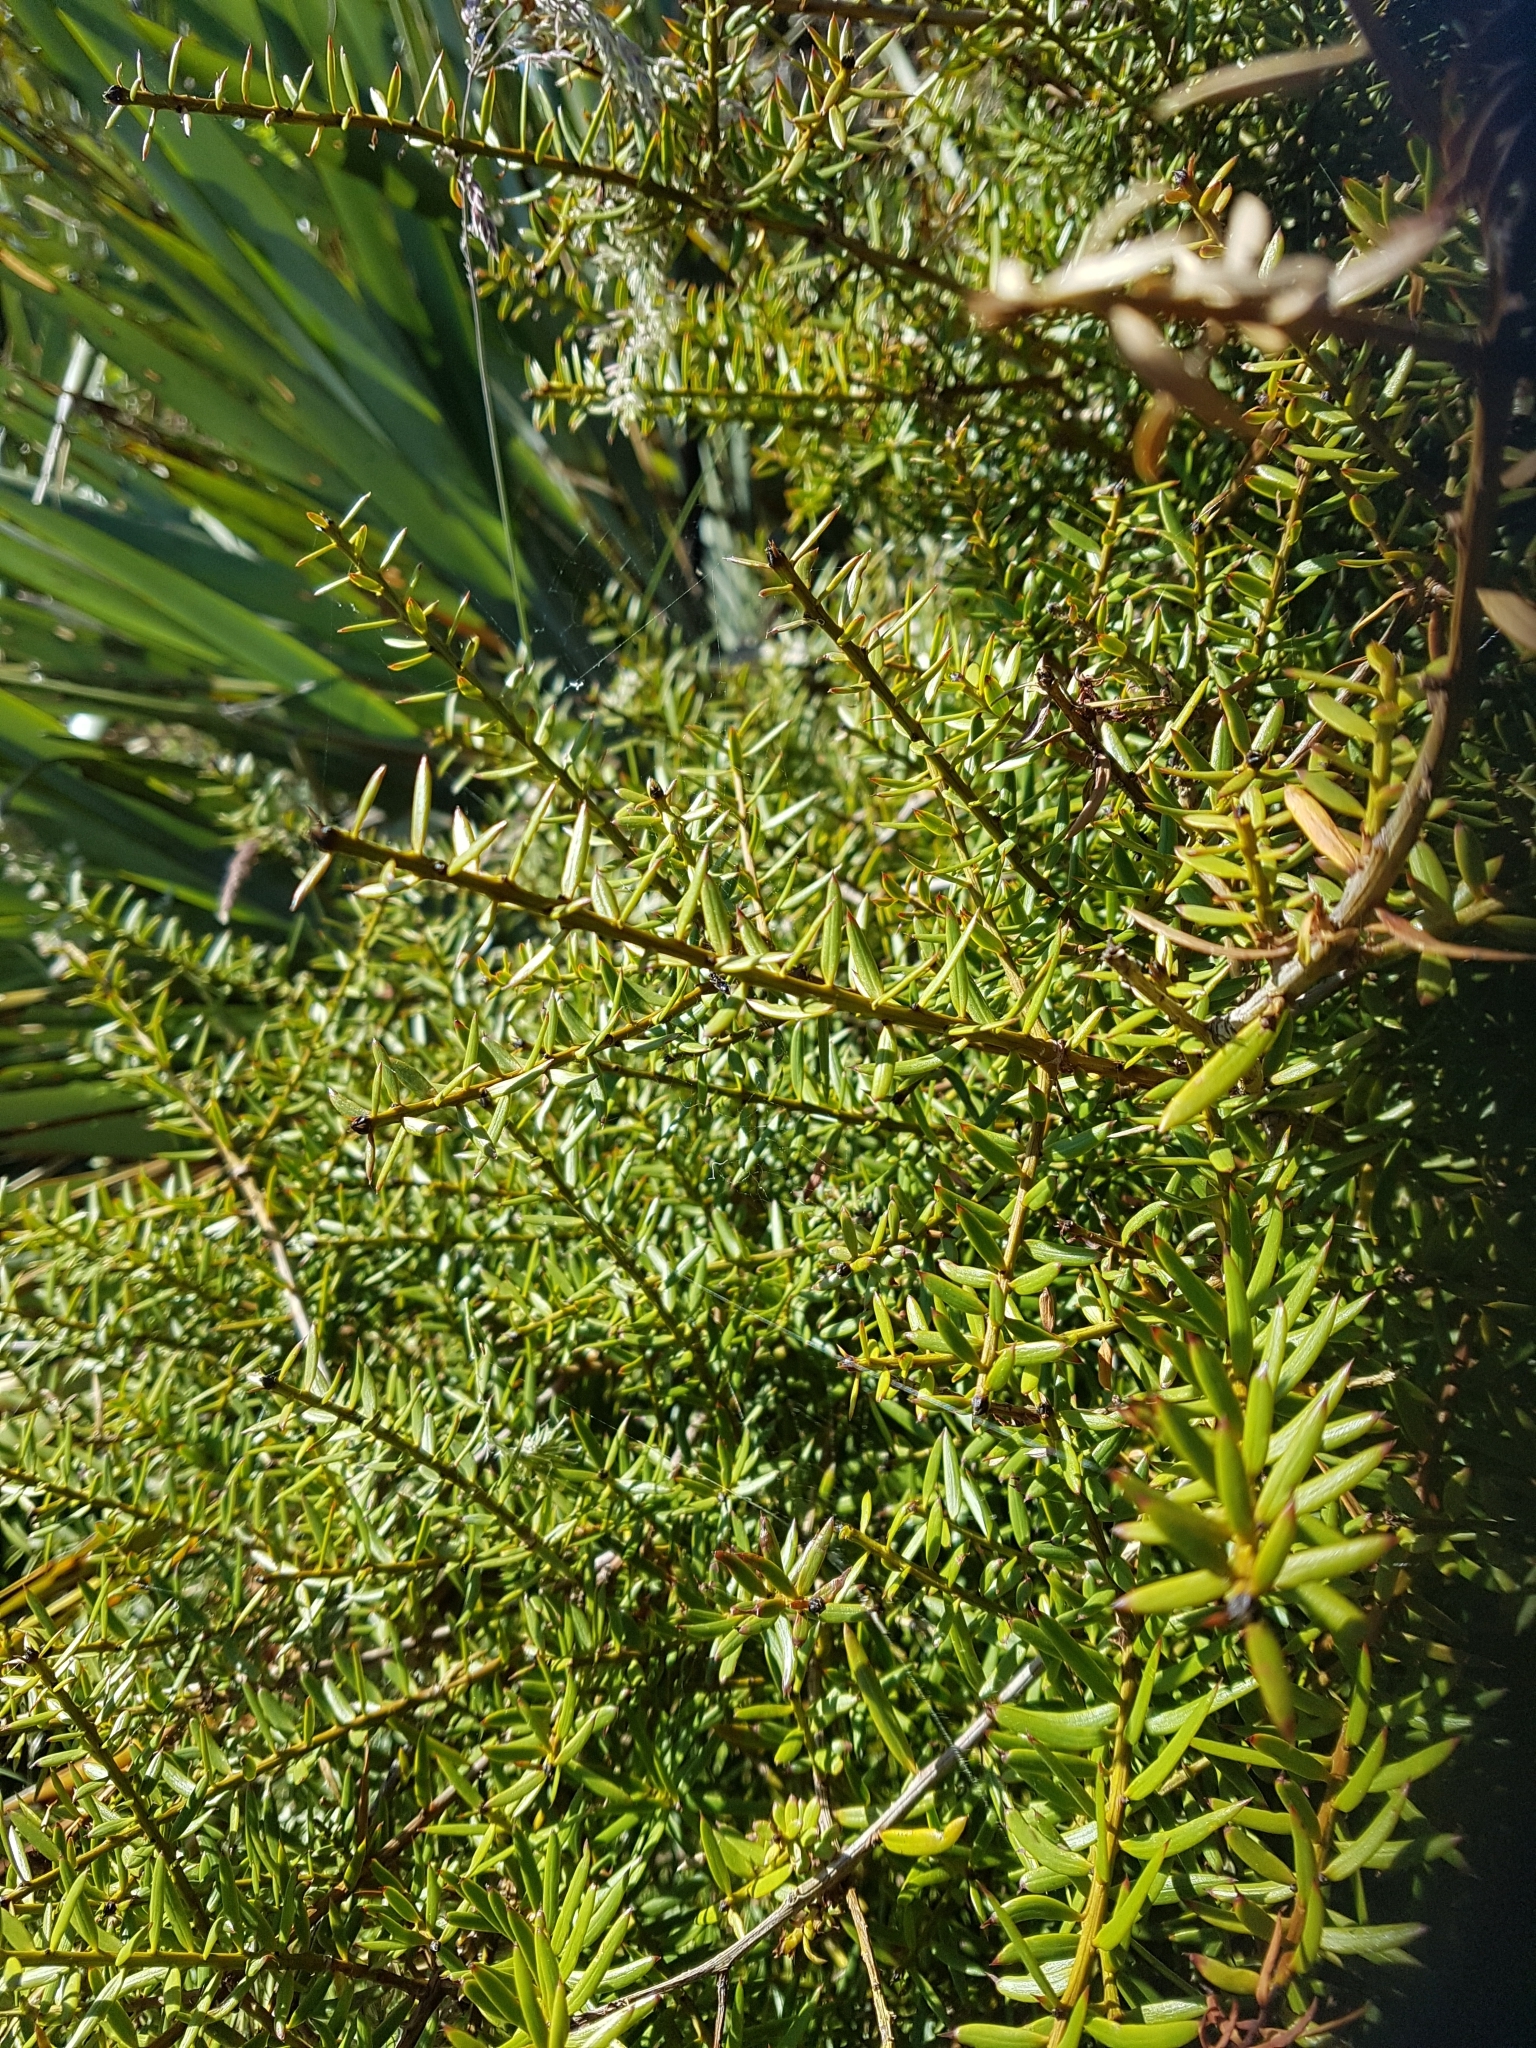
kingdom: Plantae
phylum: Tracheophyta
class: Pinopsida
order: Pinales
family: Podocarpaceae
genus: Podocarpus
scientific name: Podocarpus totara
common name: Totara
